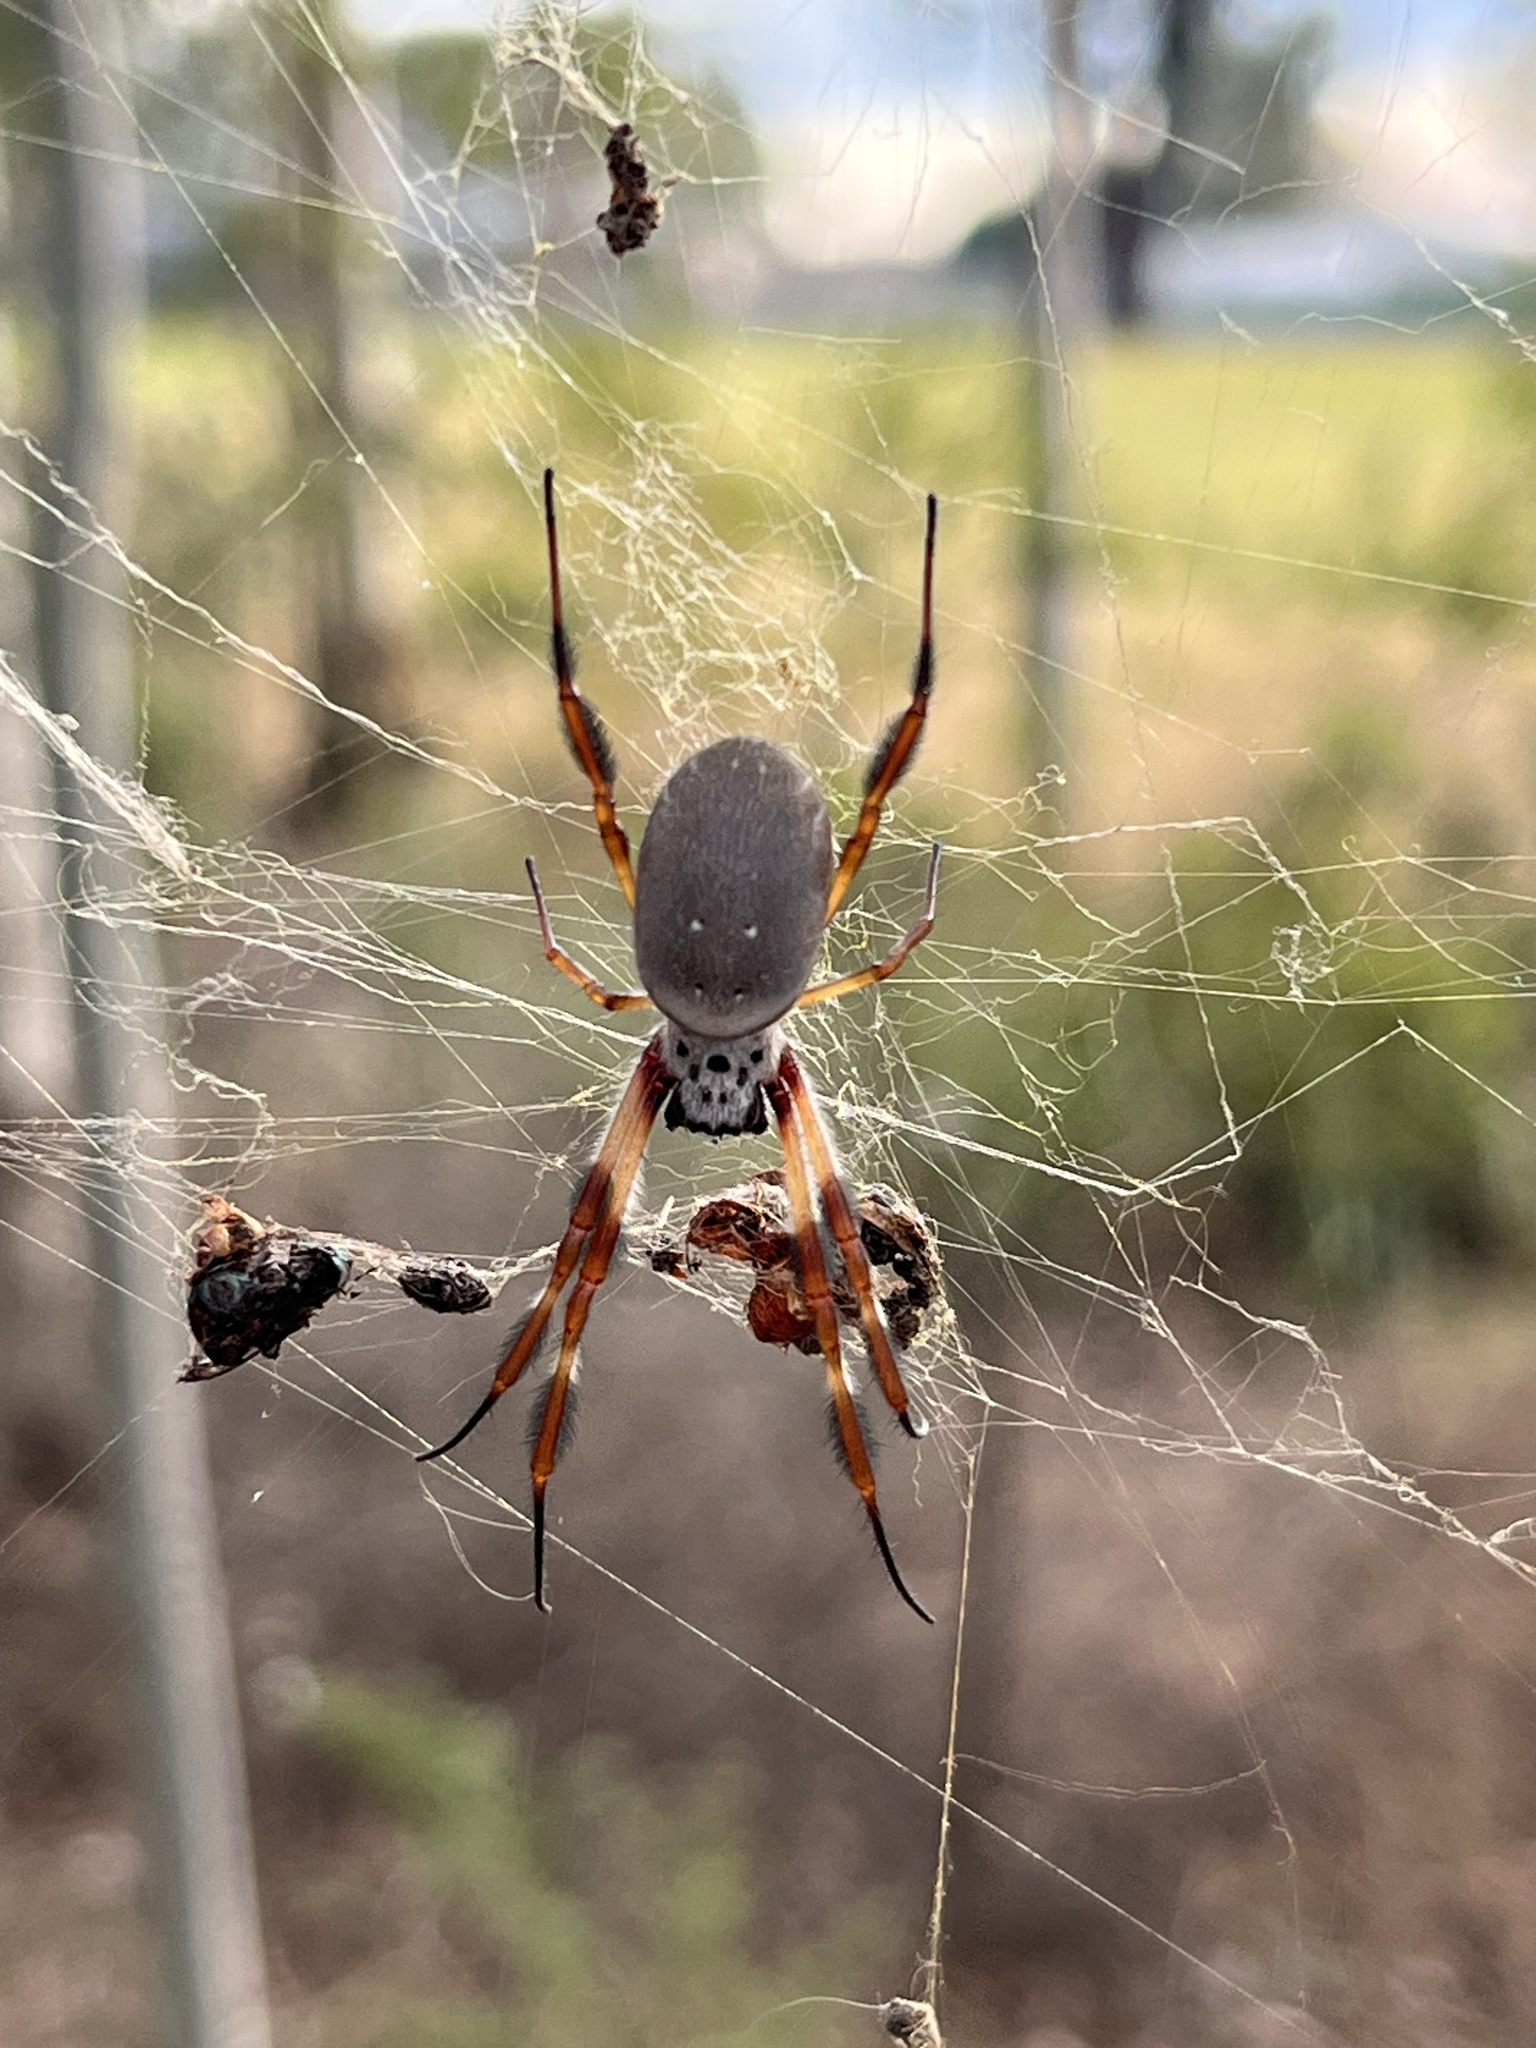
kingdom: Animalia
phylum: Arthropoda
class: Arachnida
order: Araneae
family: Araneidae
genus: Trichonephila
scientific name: Trichonephila edulis
